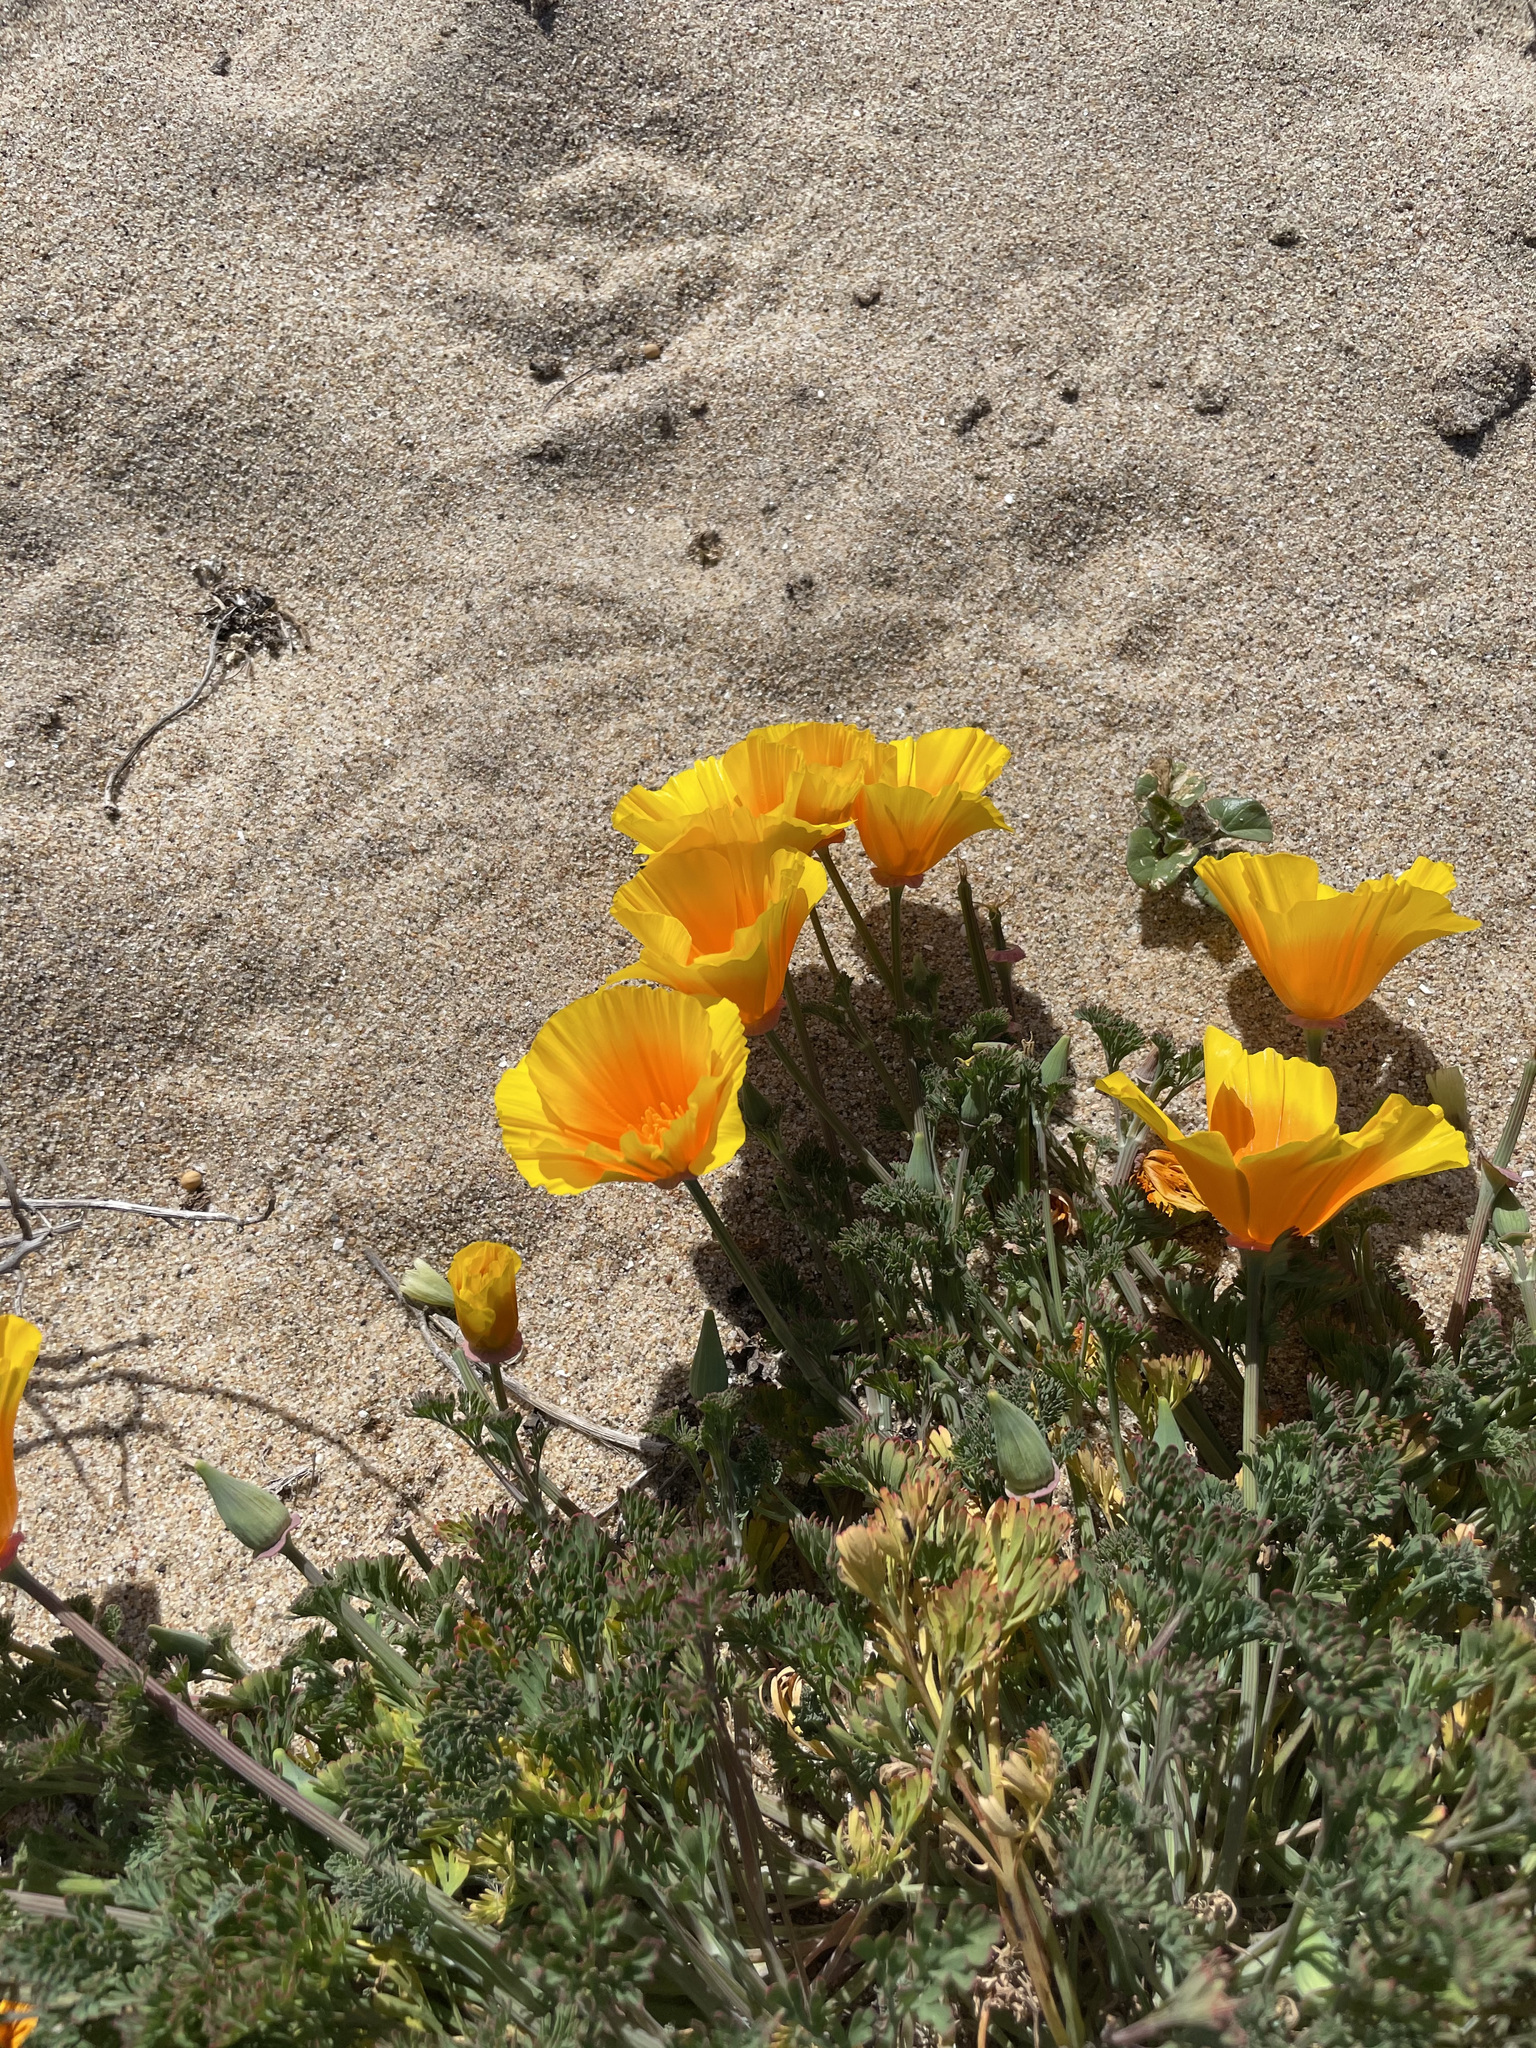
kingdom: Plantae
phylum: Tracheophyta
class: Magnoliopsida
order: Ranunculales
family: Papaveraceae
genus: Eschscholzia
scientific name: Eschscholzia californica
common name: California poppy
